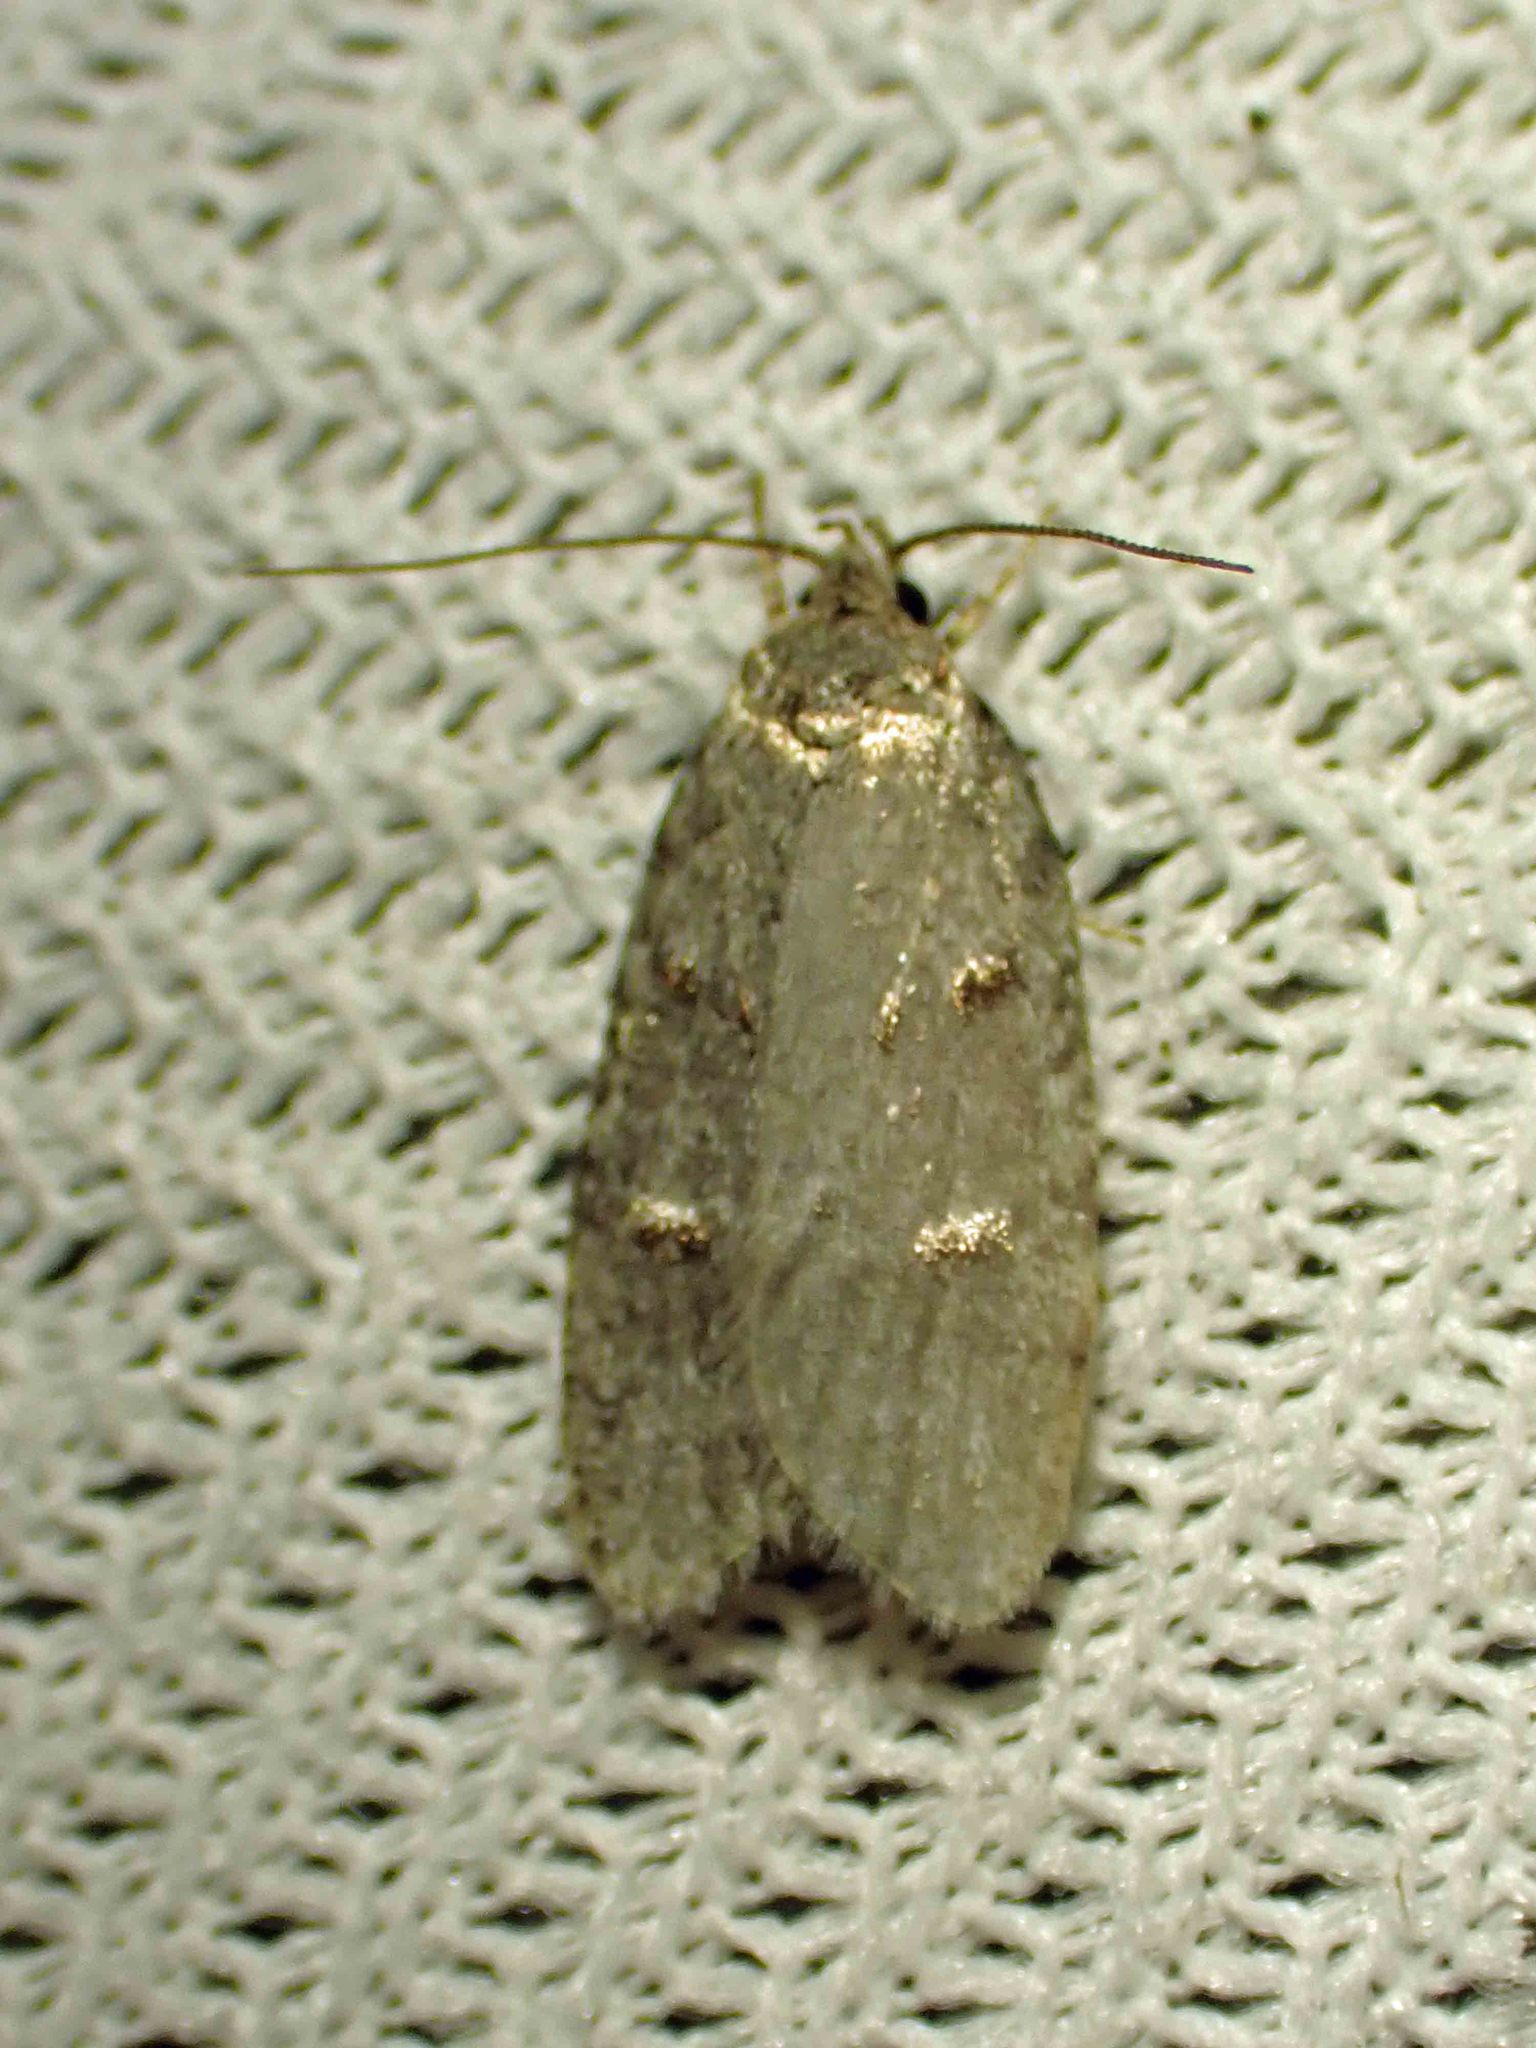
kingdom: Animalia
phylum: Arthropoda
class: Insecta
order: Lepidoptera
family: Depressariidae
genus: Bibarrambla
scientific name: Bibarrambla allenella
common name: Bog bibarrambla moth
